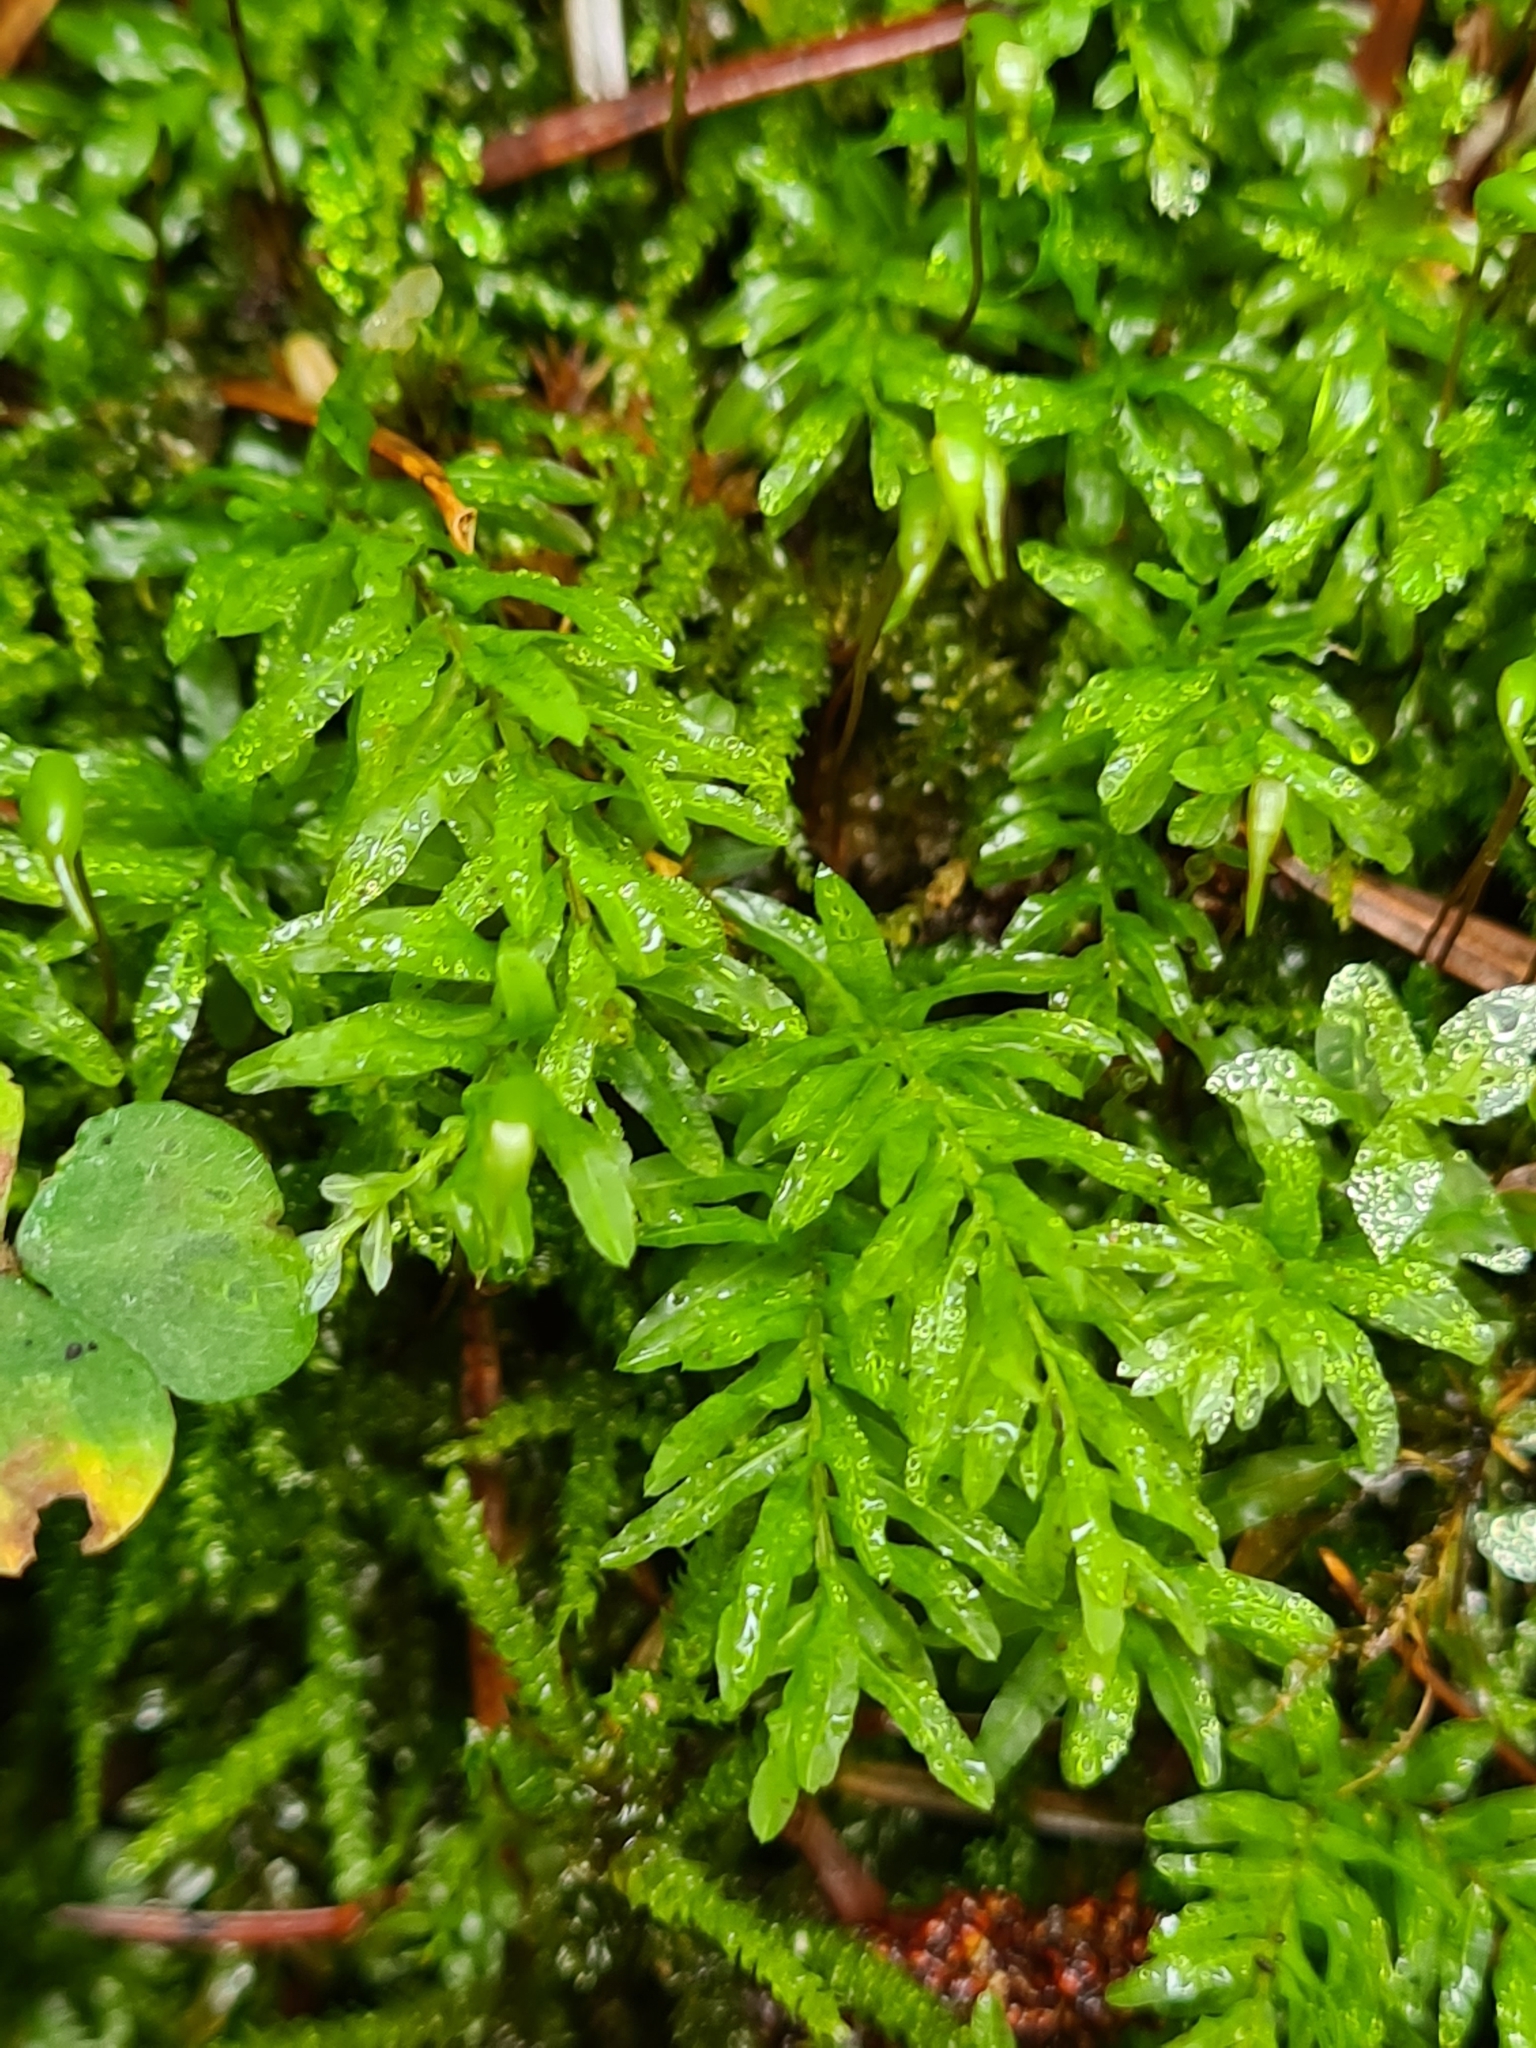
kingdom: Plantae
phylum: Bryophyta
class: Bryopsida
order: Bryales
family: Mniaceae
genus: Plagiomnium
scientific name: Plagiomnium undulatum
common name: Hart's-tongue thyme-moss
